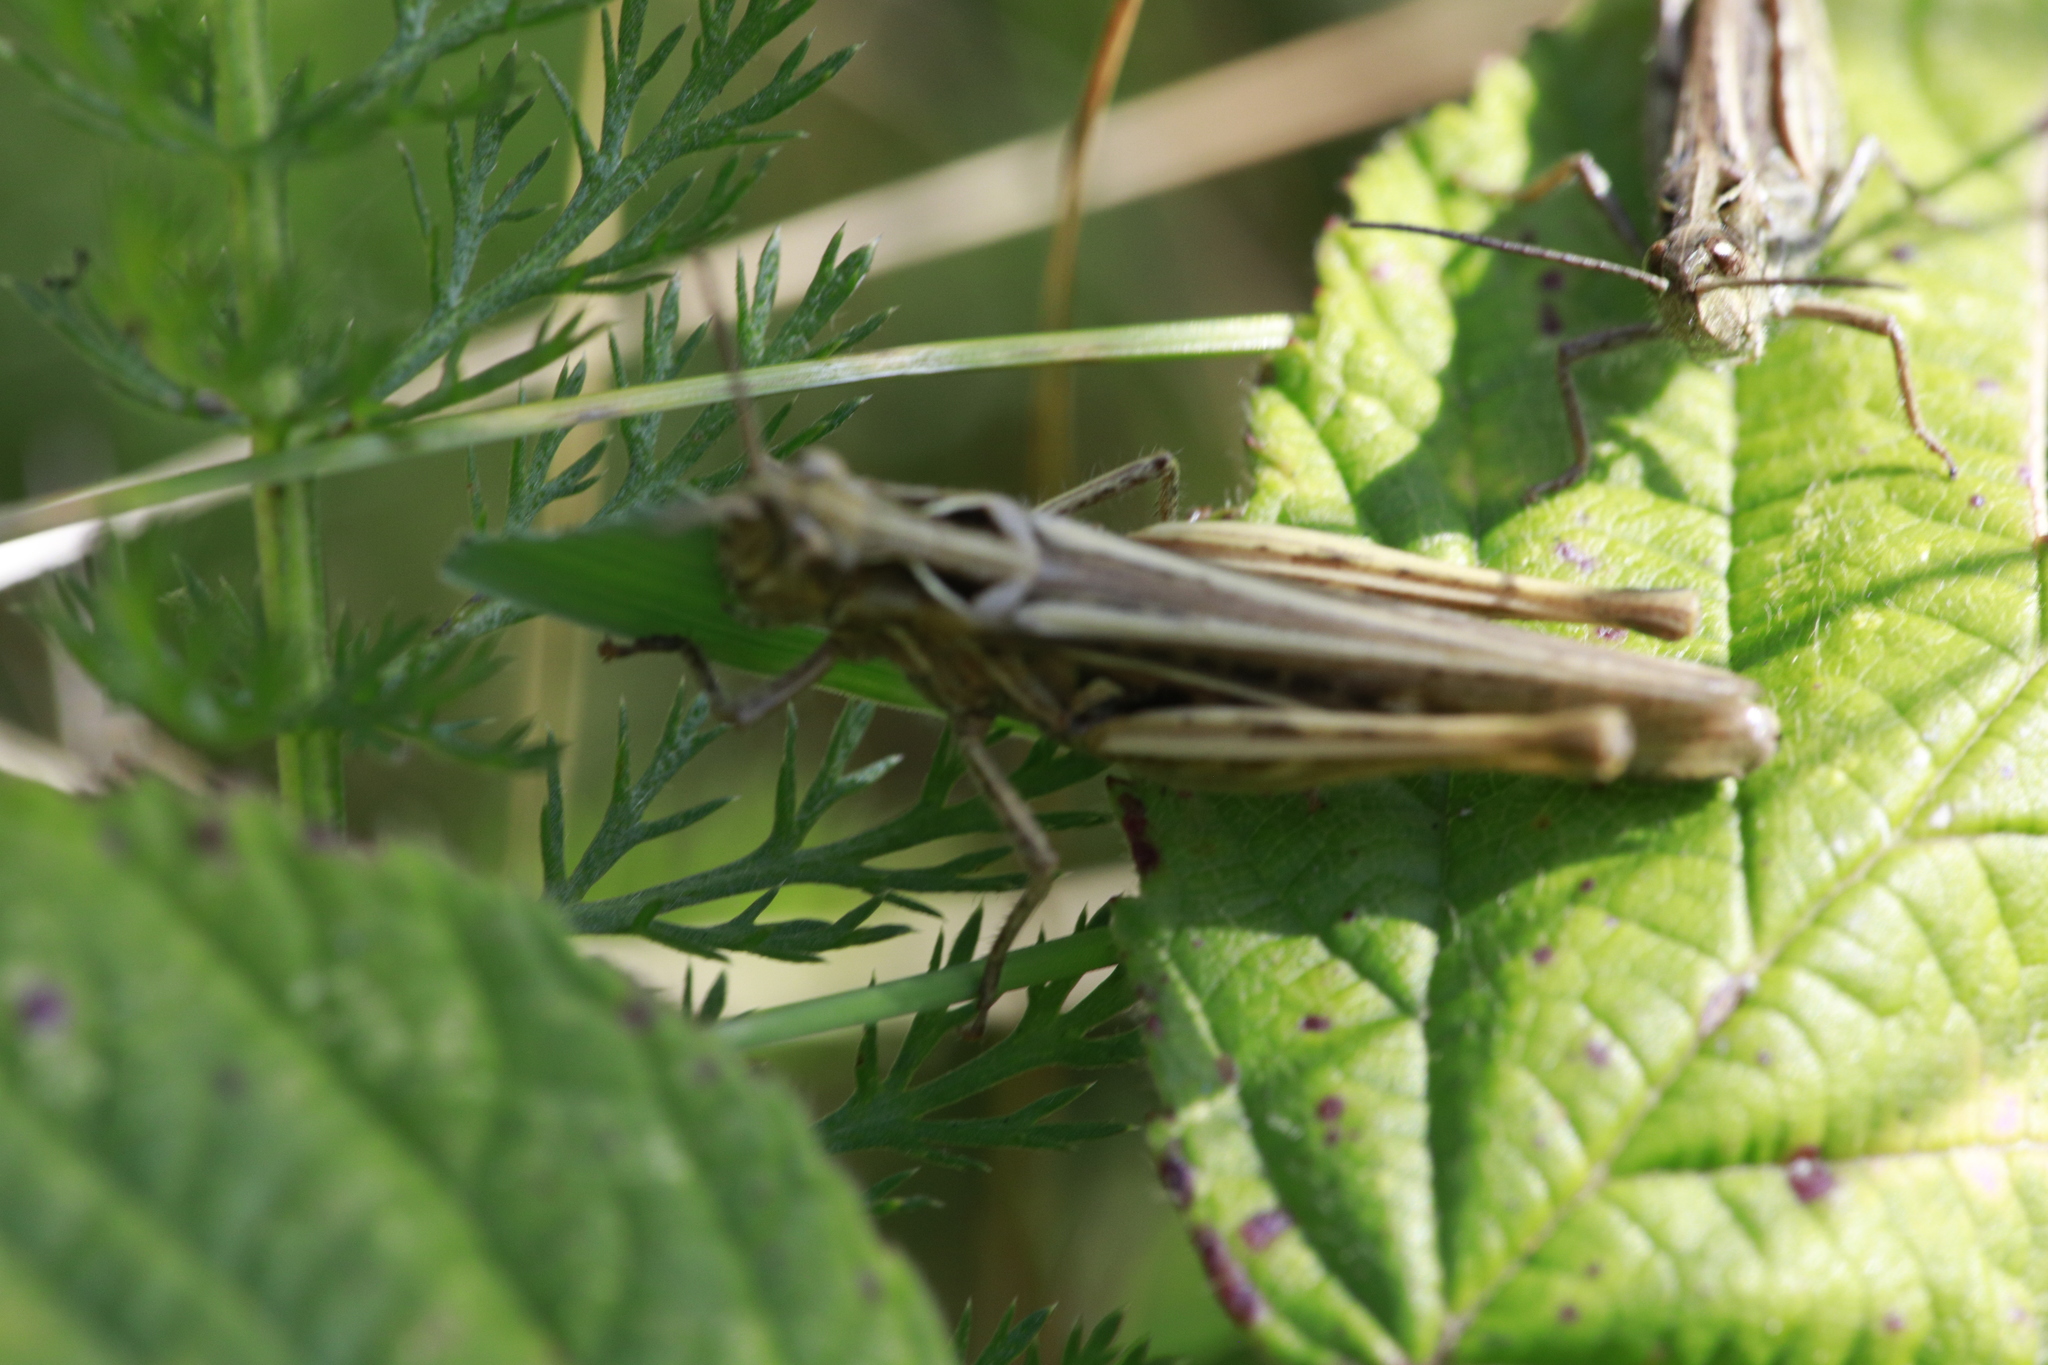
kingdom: Animalia
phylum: Arthropoda
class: Insecta
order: Orthoptera
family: Acrididae
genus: Chorthippus
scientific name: Chorthippus brunneus
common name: Field grasshopper
